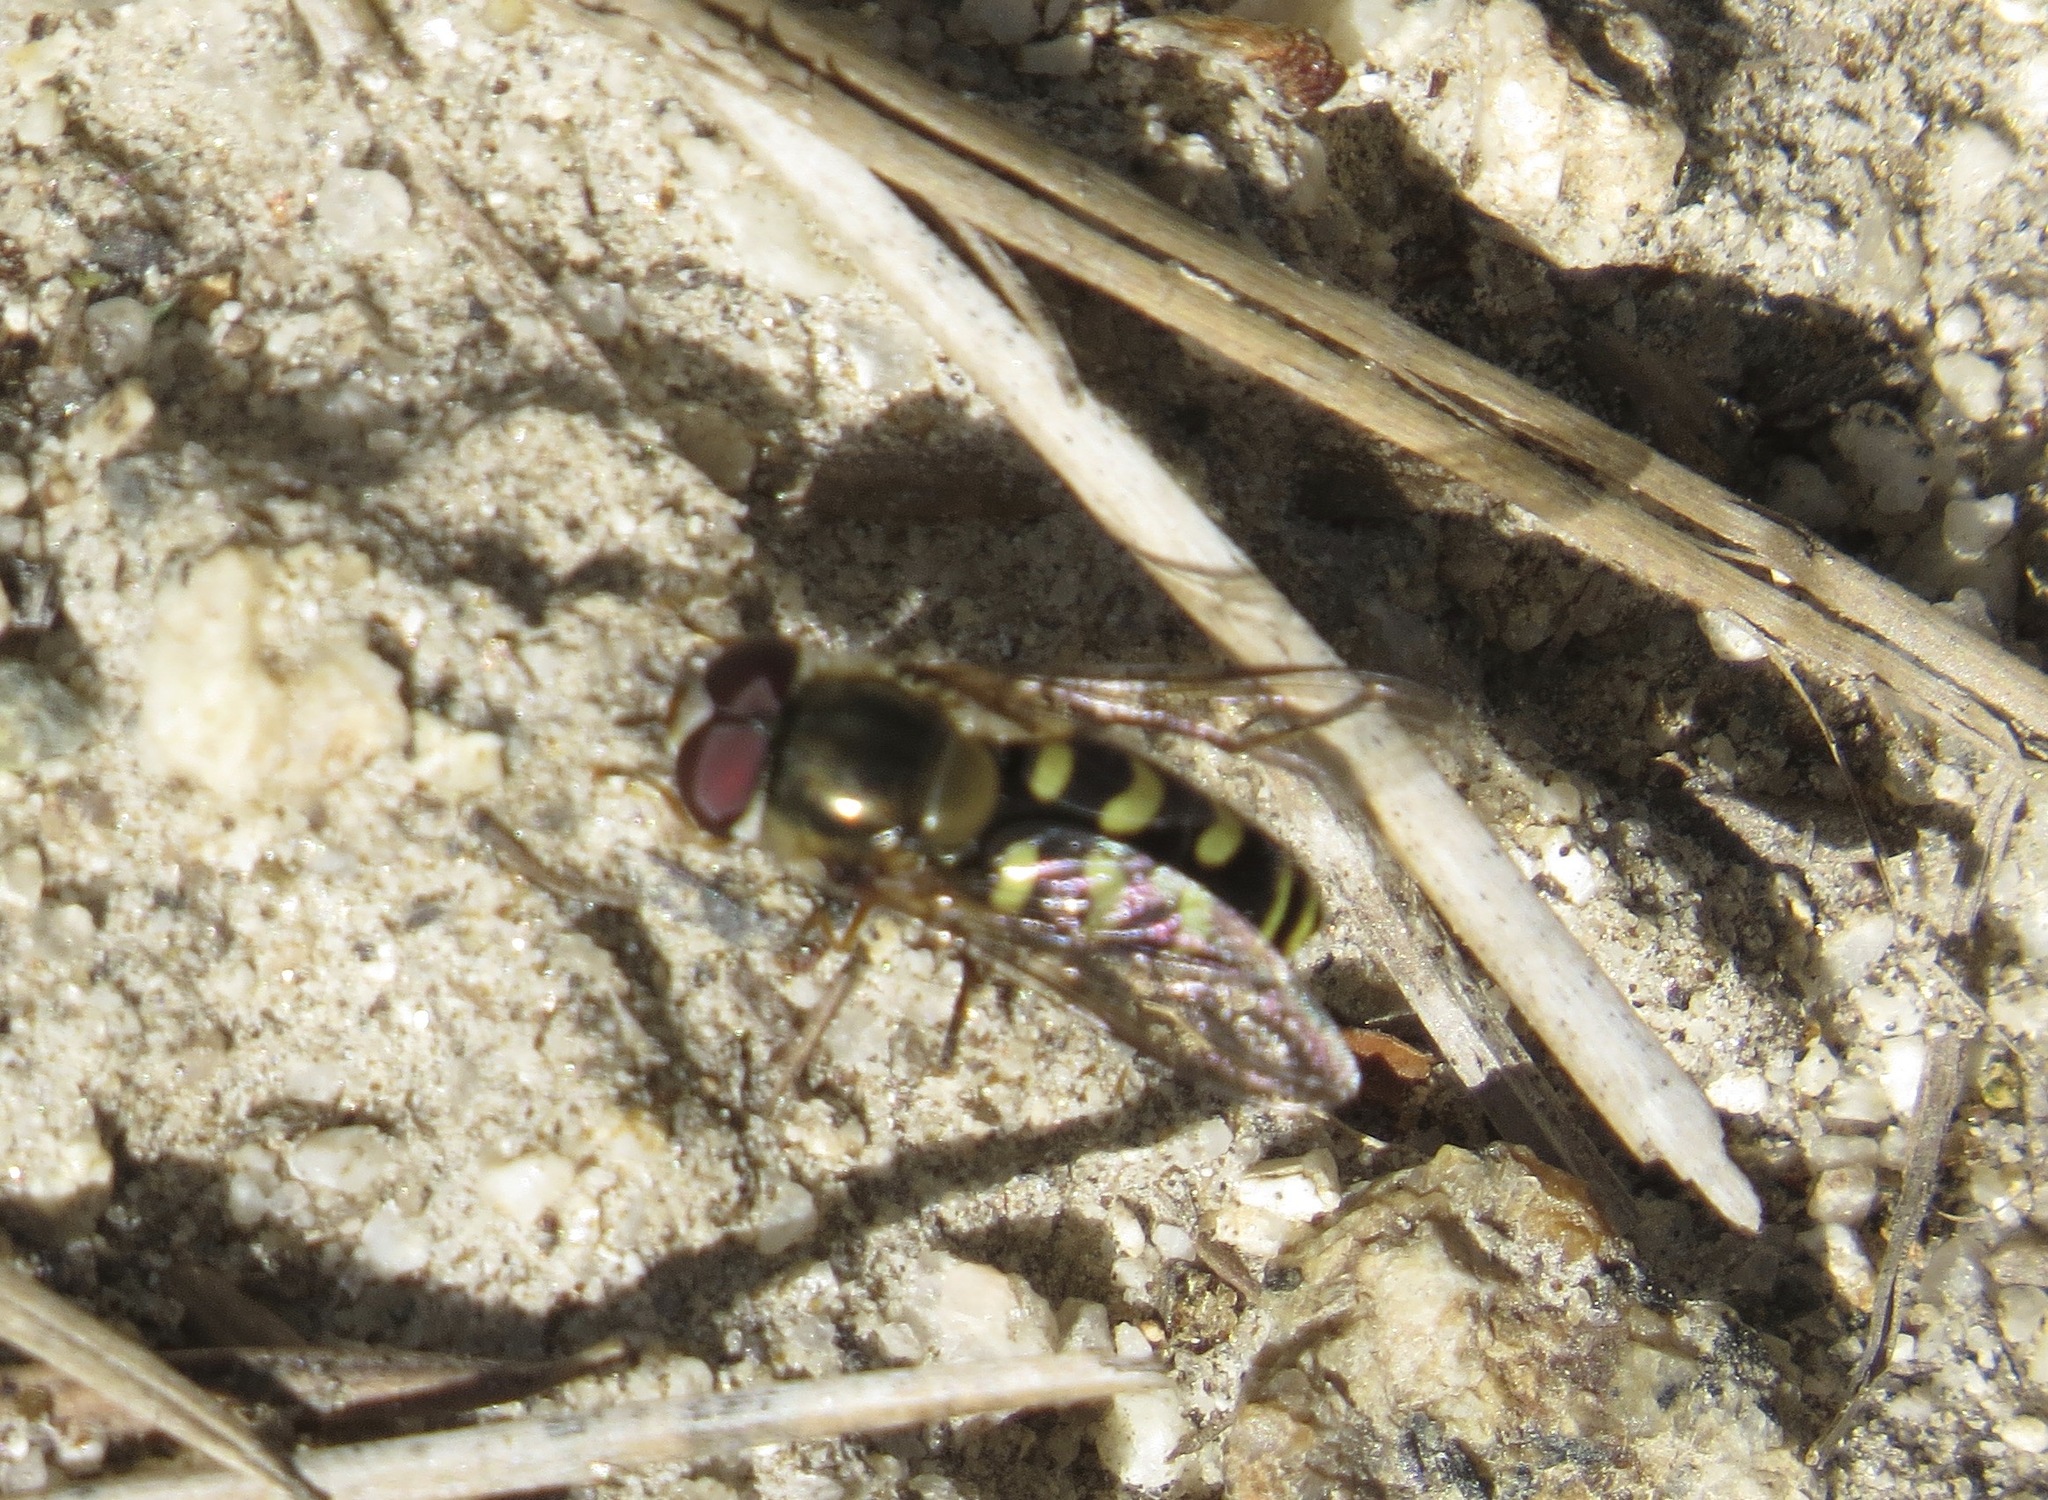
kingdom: Animalia
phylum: Arthropoda
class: Insecta
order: Diptera
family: Syrphidae
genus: Lapposyrphus
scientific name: Lapposyrphus lapponicus
